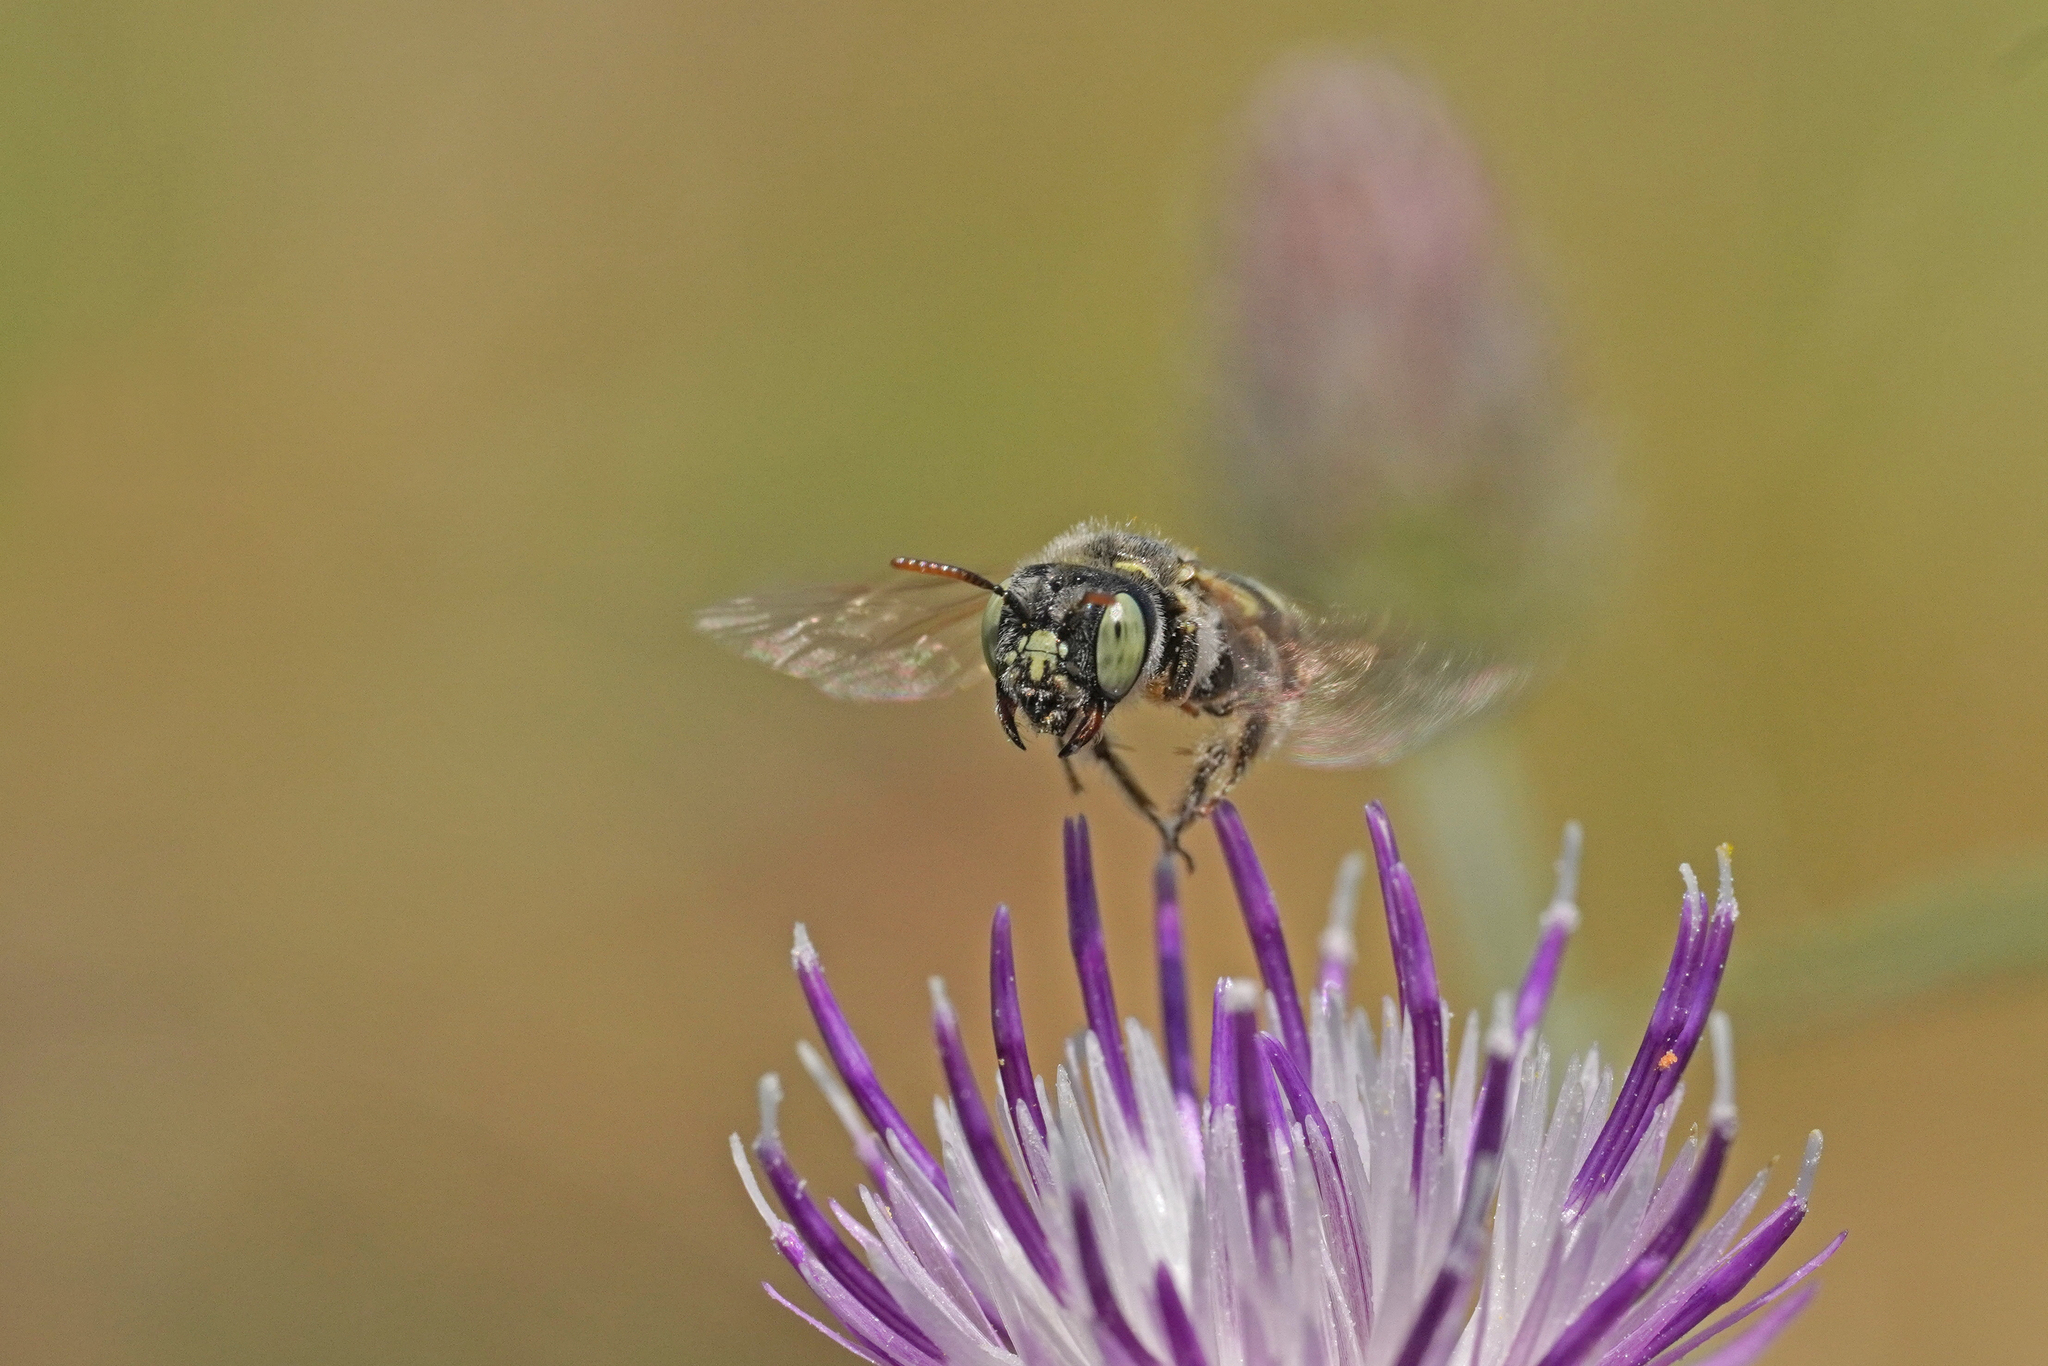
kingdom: Animalia
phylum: Arthropoda
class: Insecta
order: Hymenoptera
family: Andrenidae
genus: Camptopoeum
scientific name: Camptopoeum friesei
